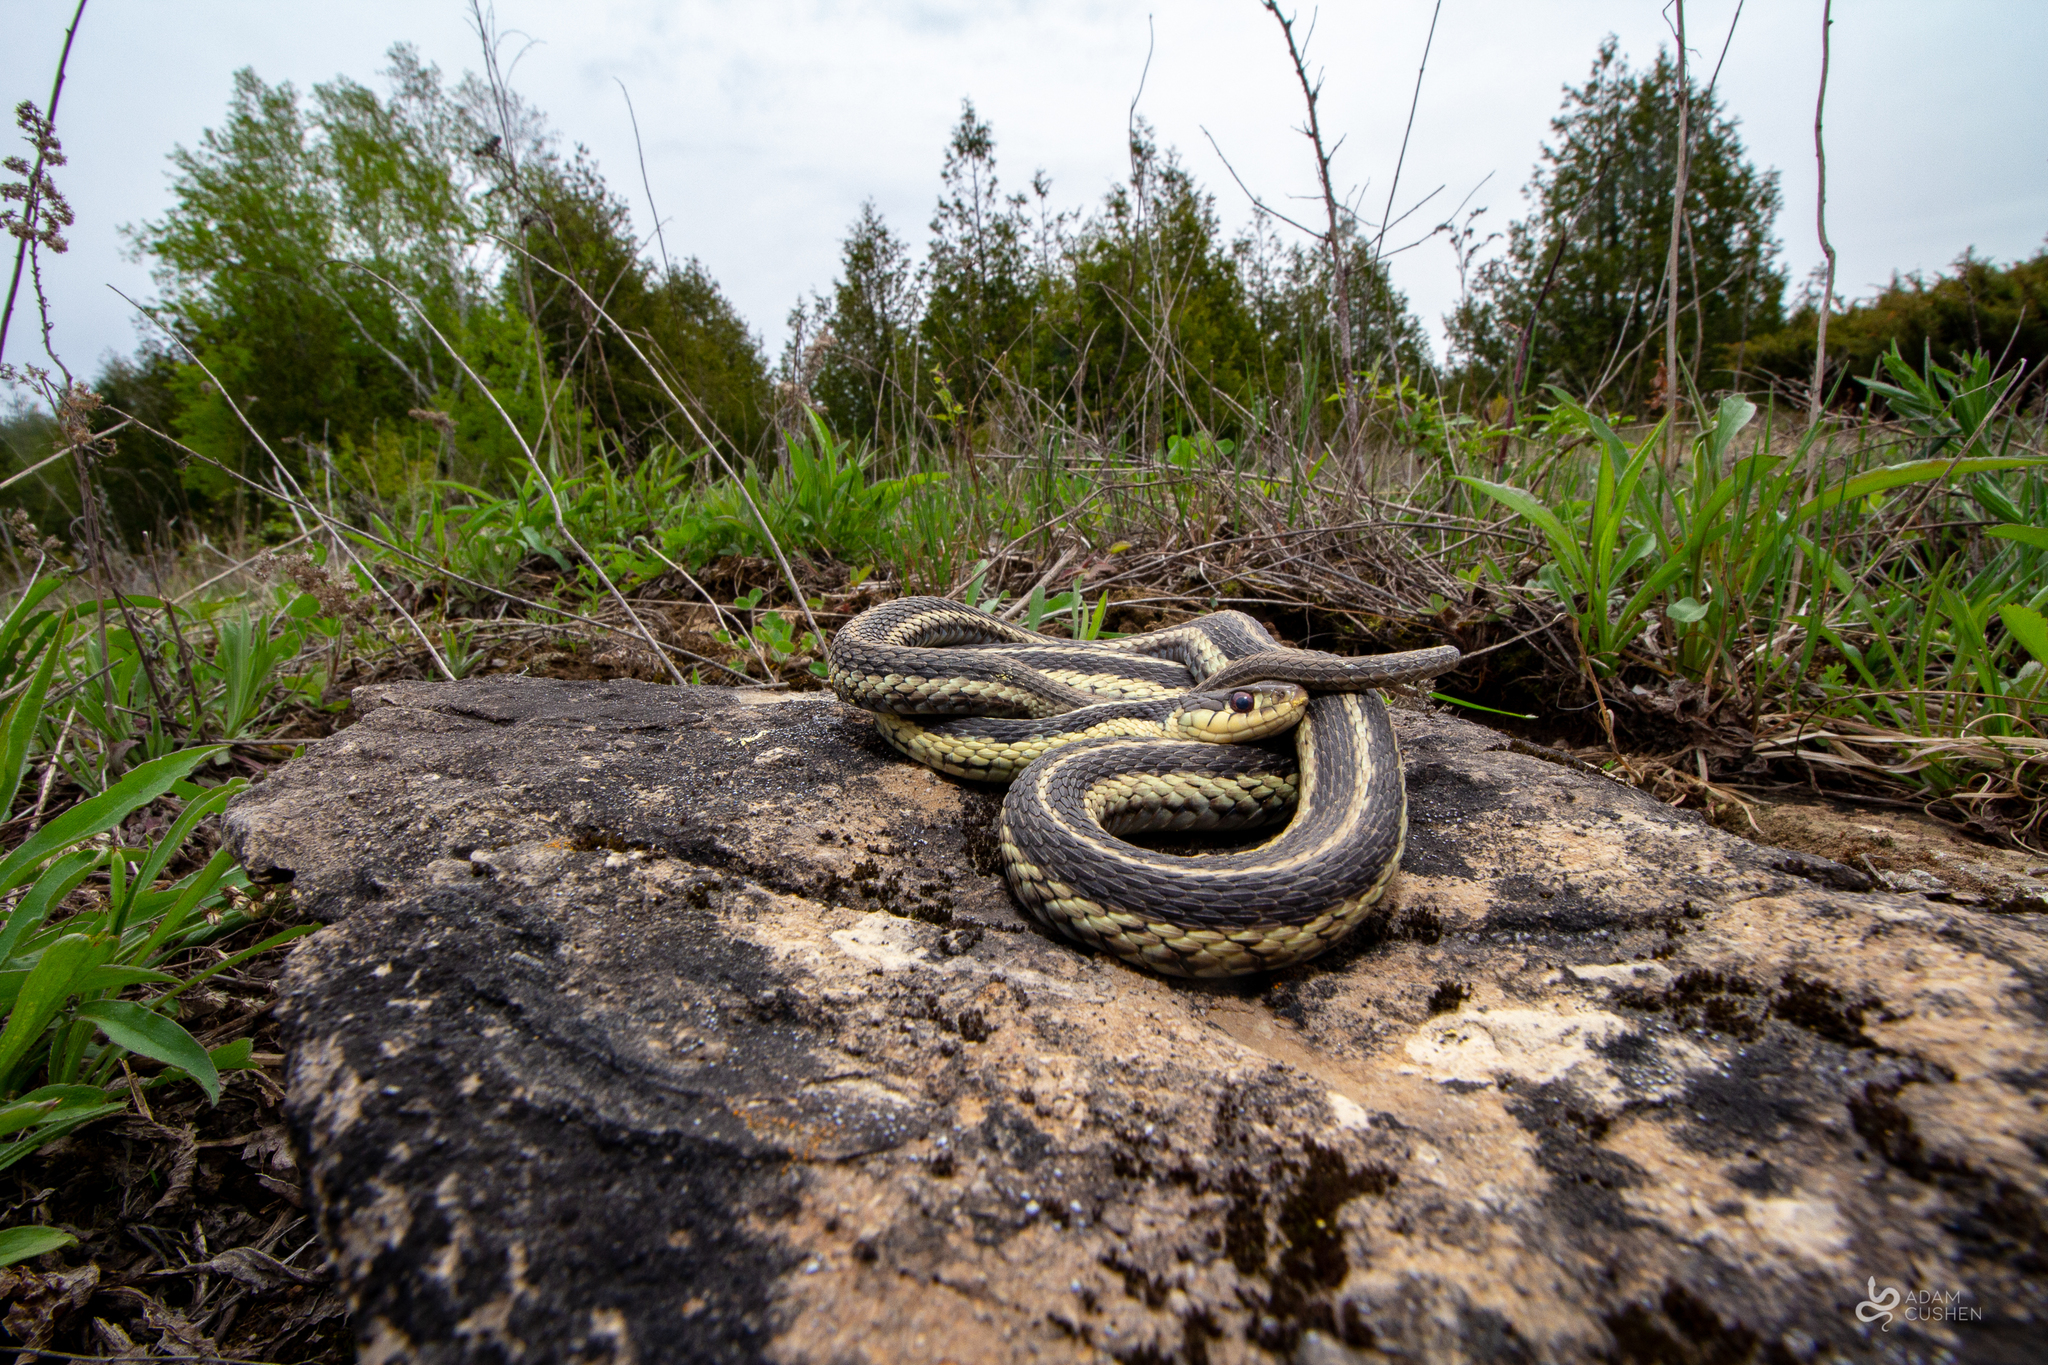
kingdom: Animalia
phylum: Chordata
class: Squamata
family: Colubridae
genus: Thamnophis
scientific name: Thamnophis sirtalis
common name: Common garter snake
